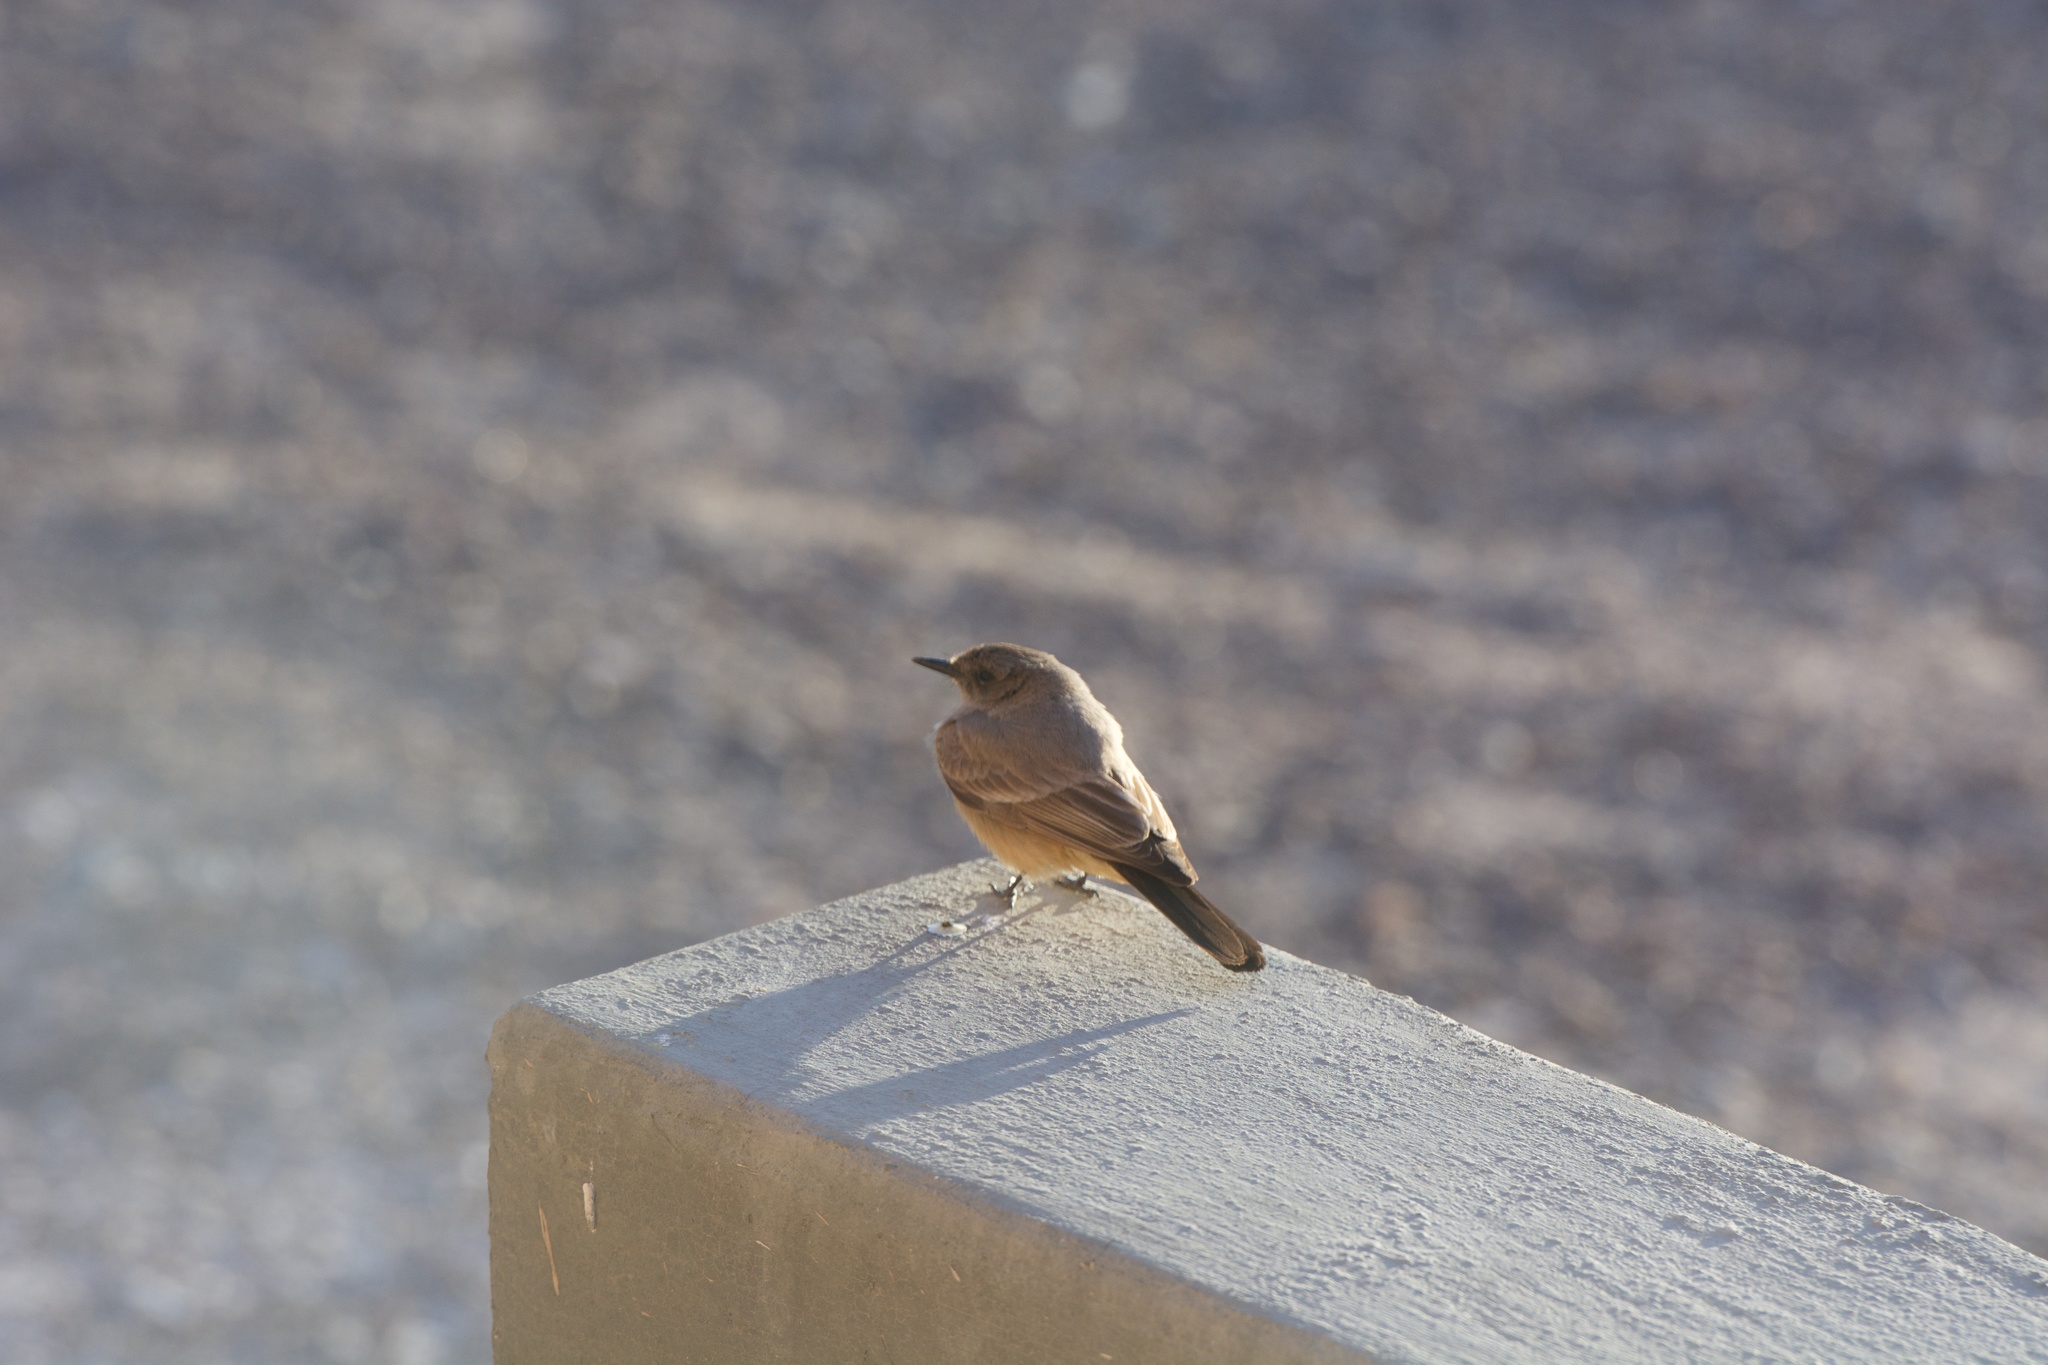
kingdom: Animalia
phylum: Chordata
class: Aves
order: Passeriformes
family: Tyrannidae
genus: Sayornis
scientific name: Sayornis saya
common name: Say's phoebe
